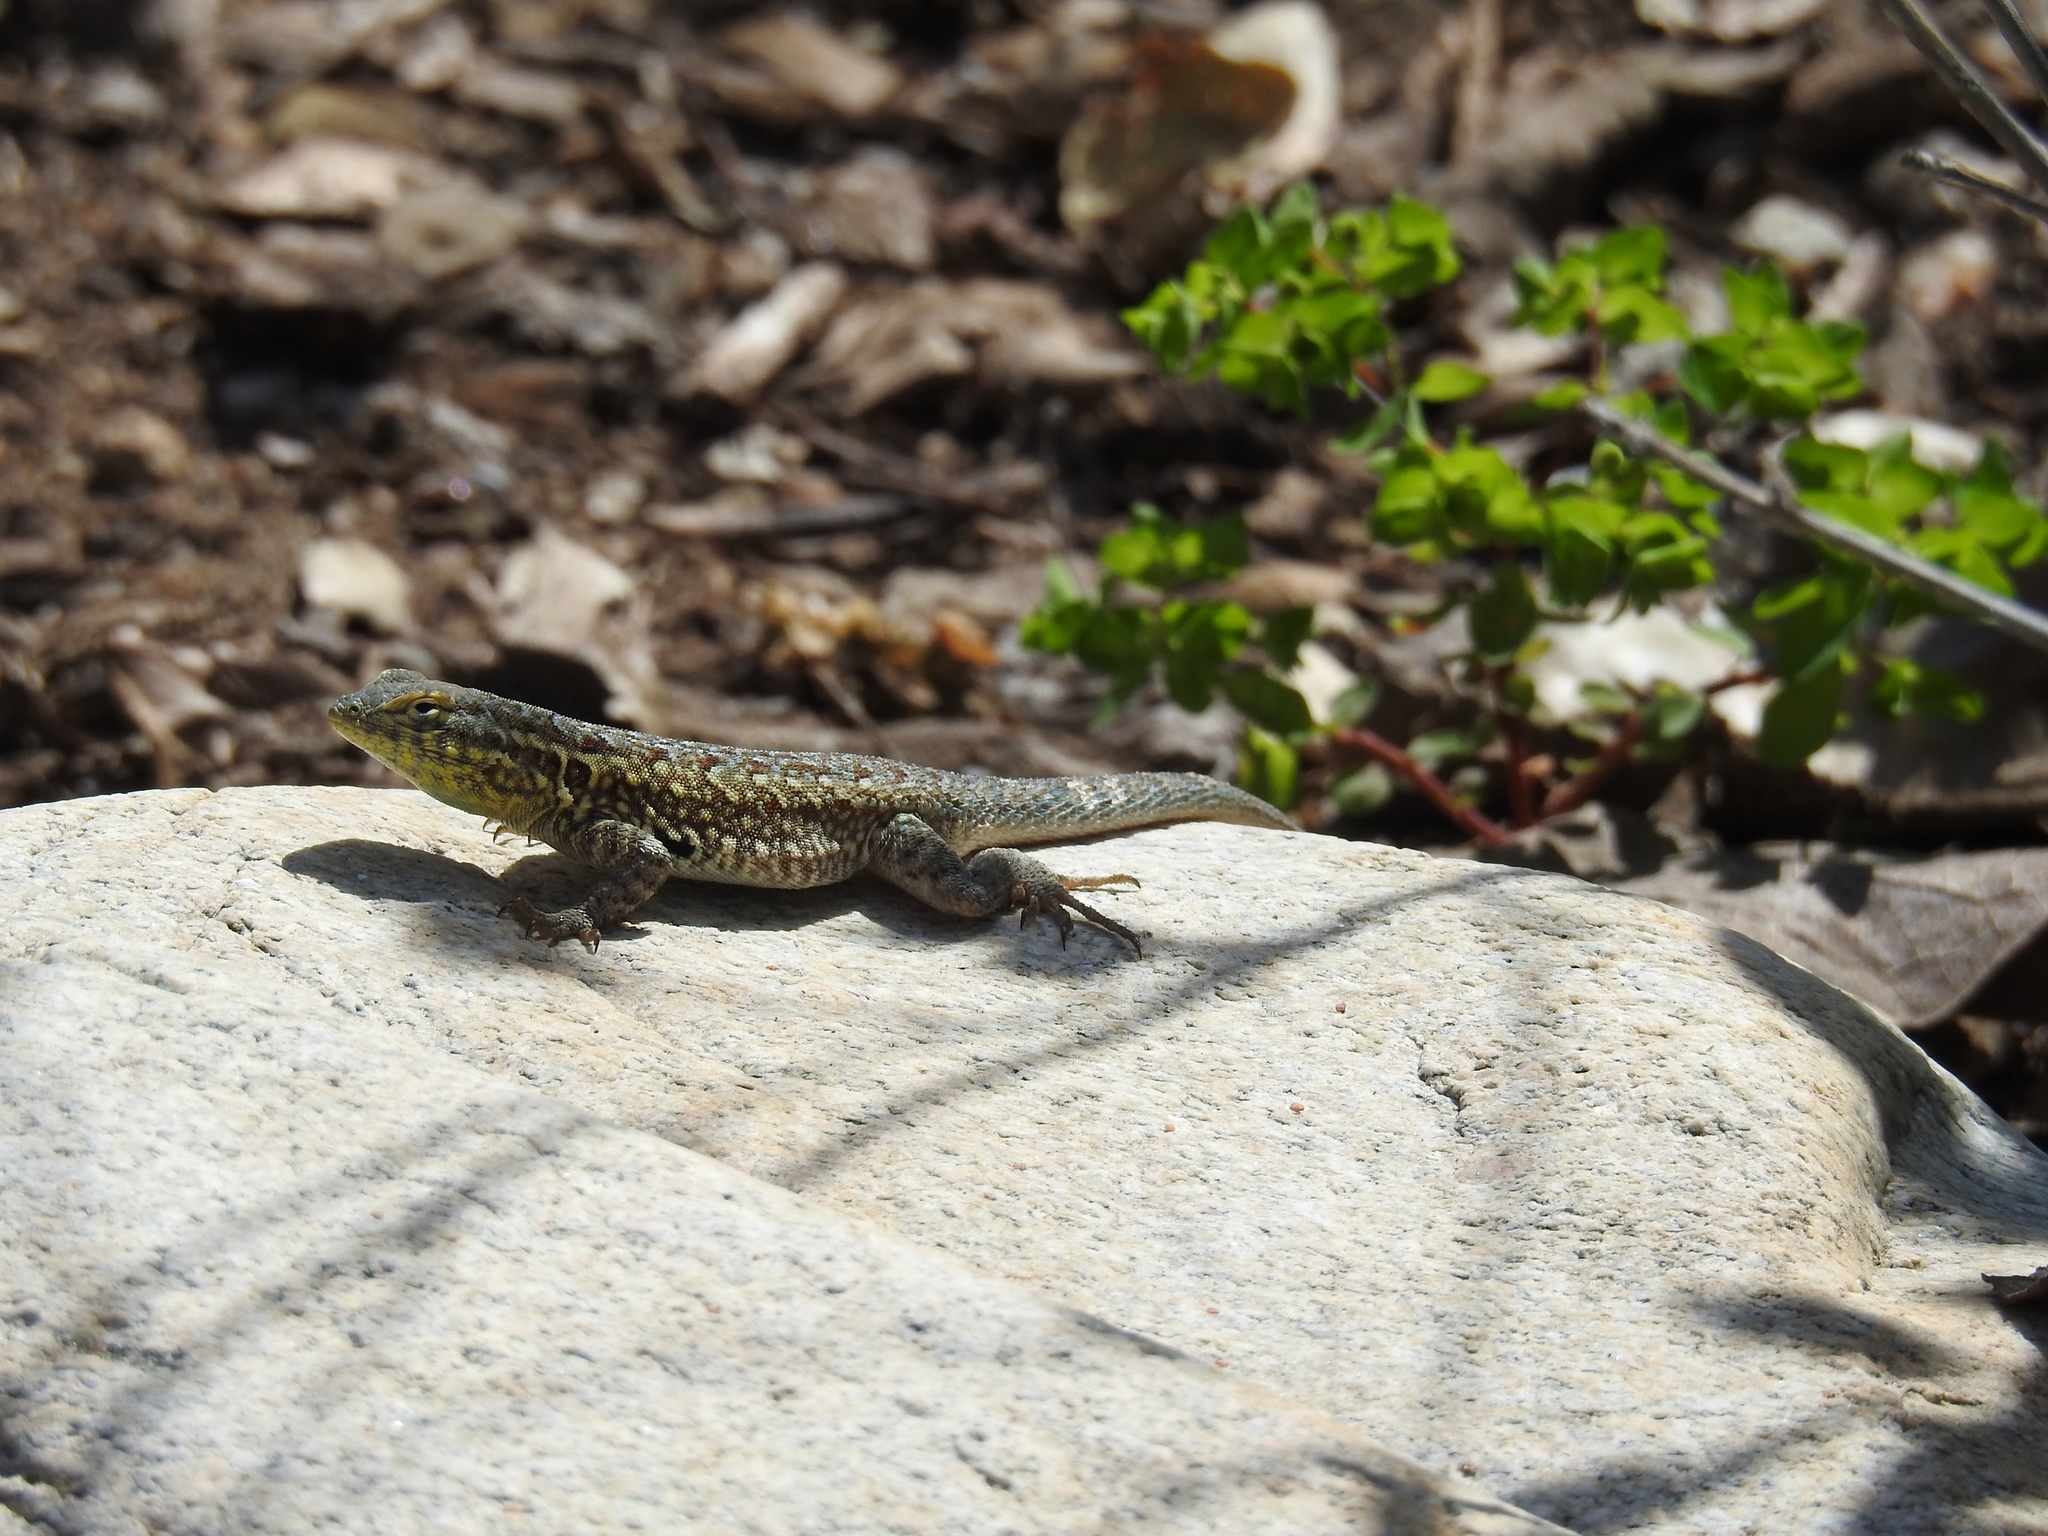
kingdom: Animalia
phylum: Chordata
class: Squamata
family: Phrynosomatidae
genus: Uta
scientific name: Uta stansburiana
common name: Side-blotched lizard
